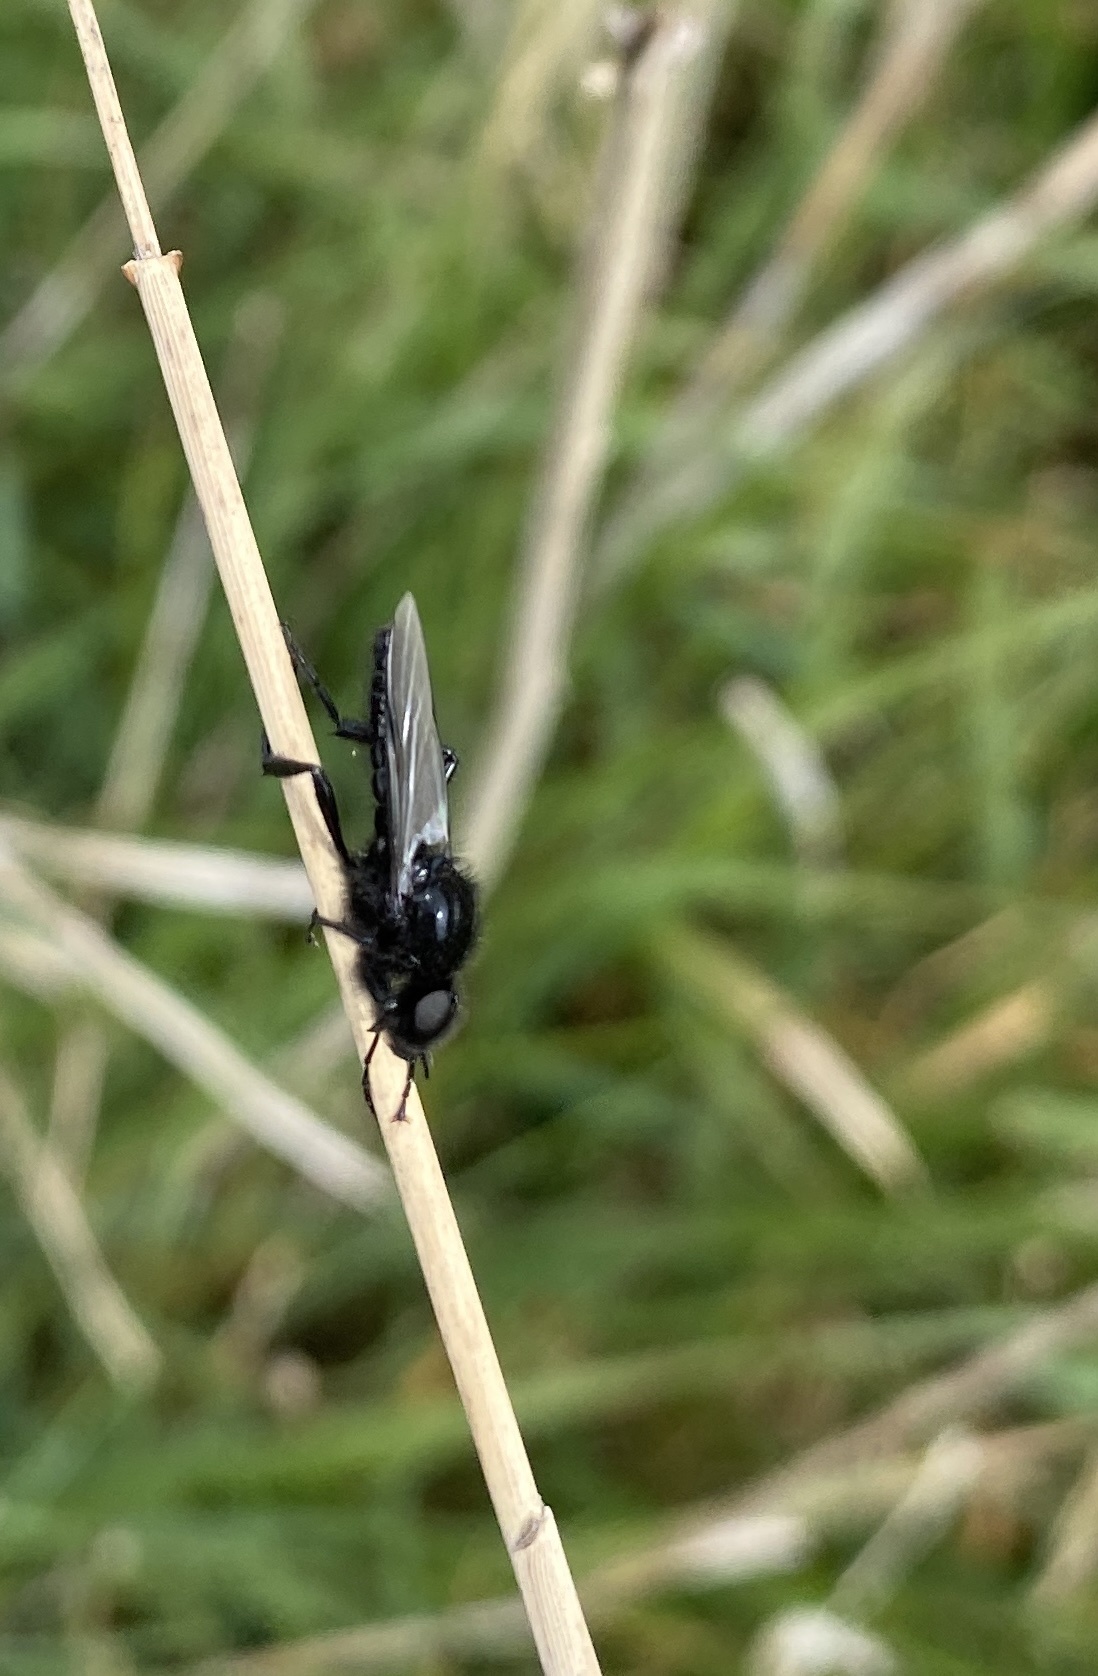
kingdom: Animalia
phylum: Arthropoda
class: Insecta
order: Diptera
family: Bibionidae
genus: Bibio
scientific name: Bibio marci
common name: St marks fly
